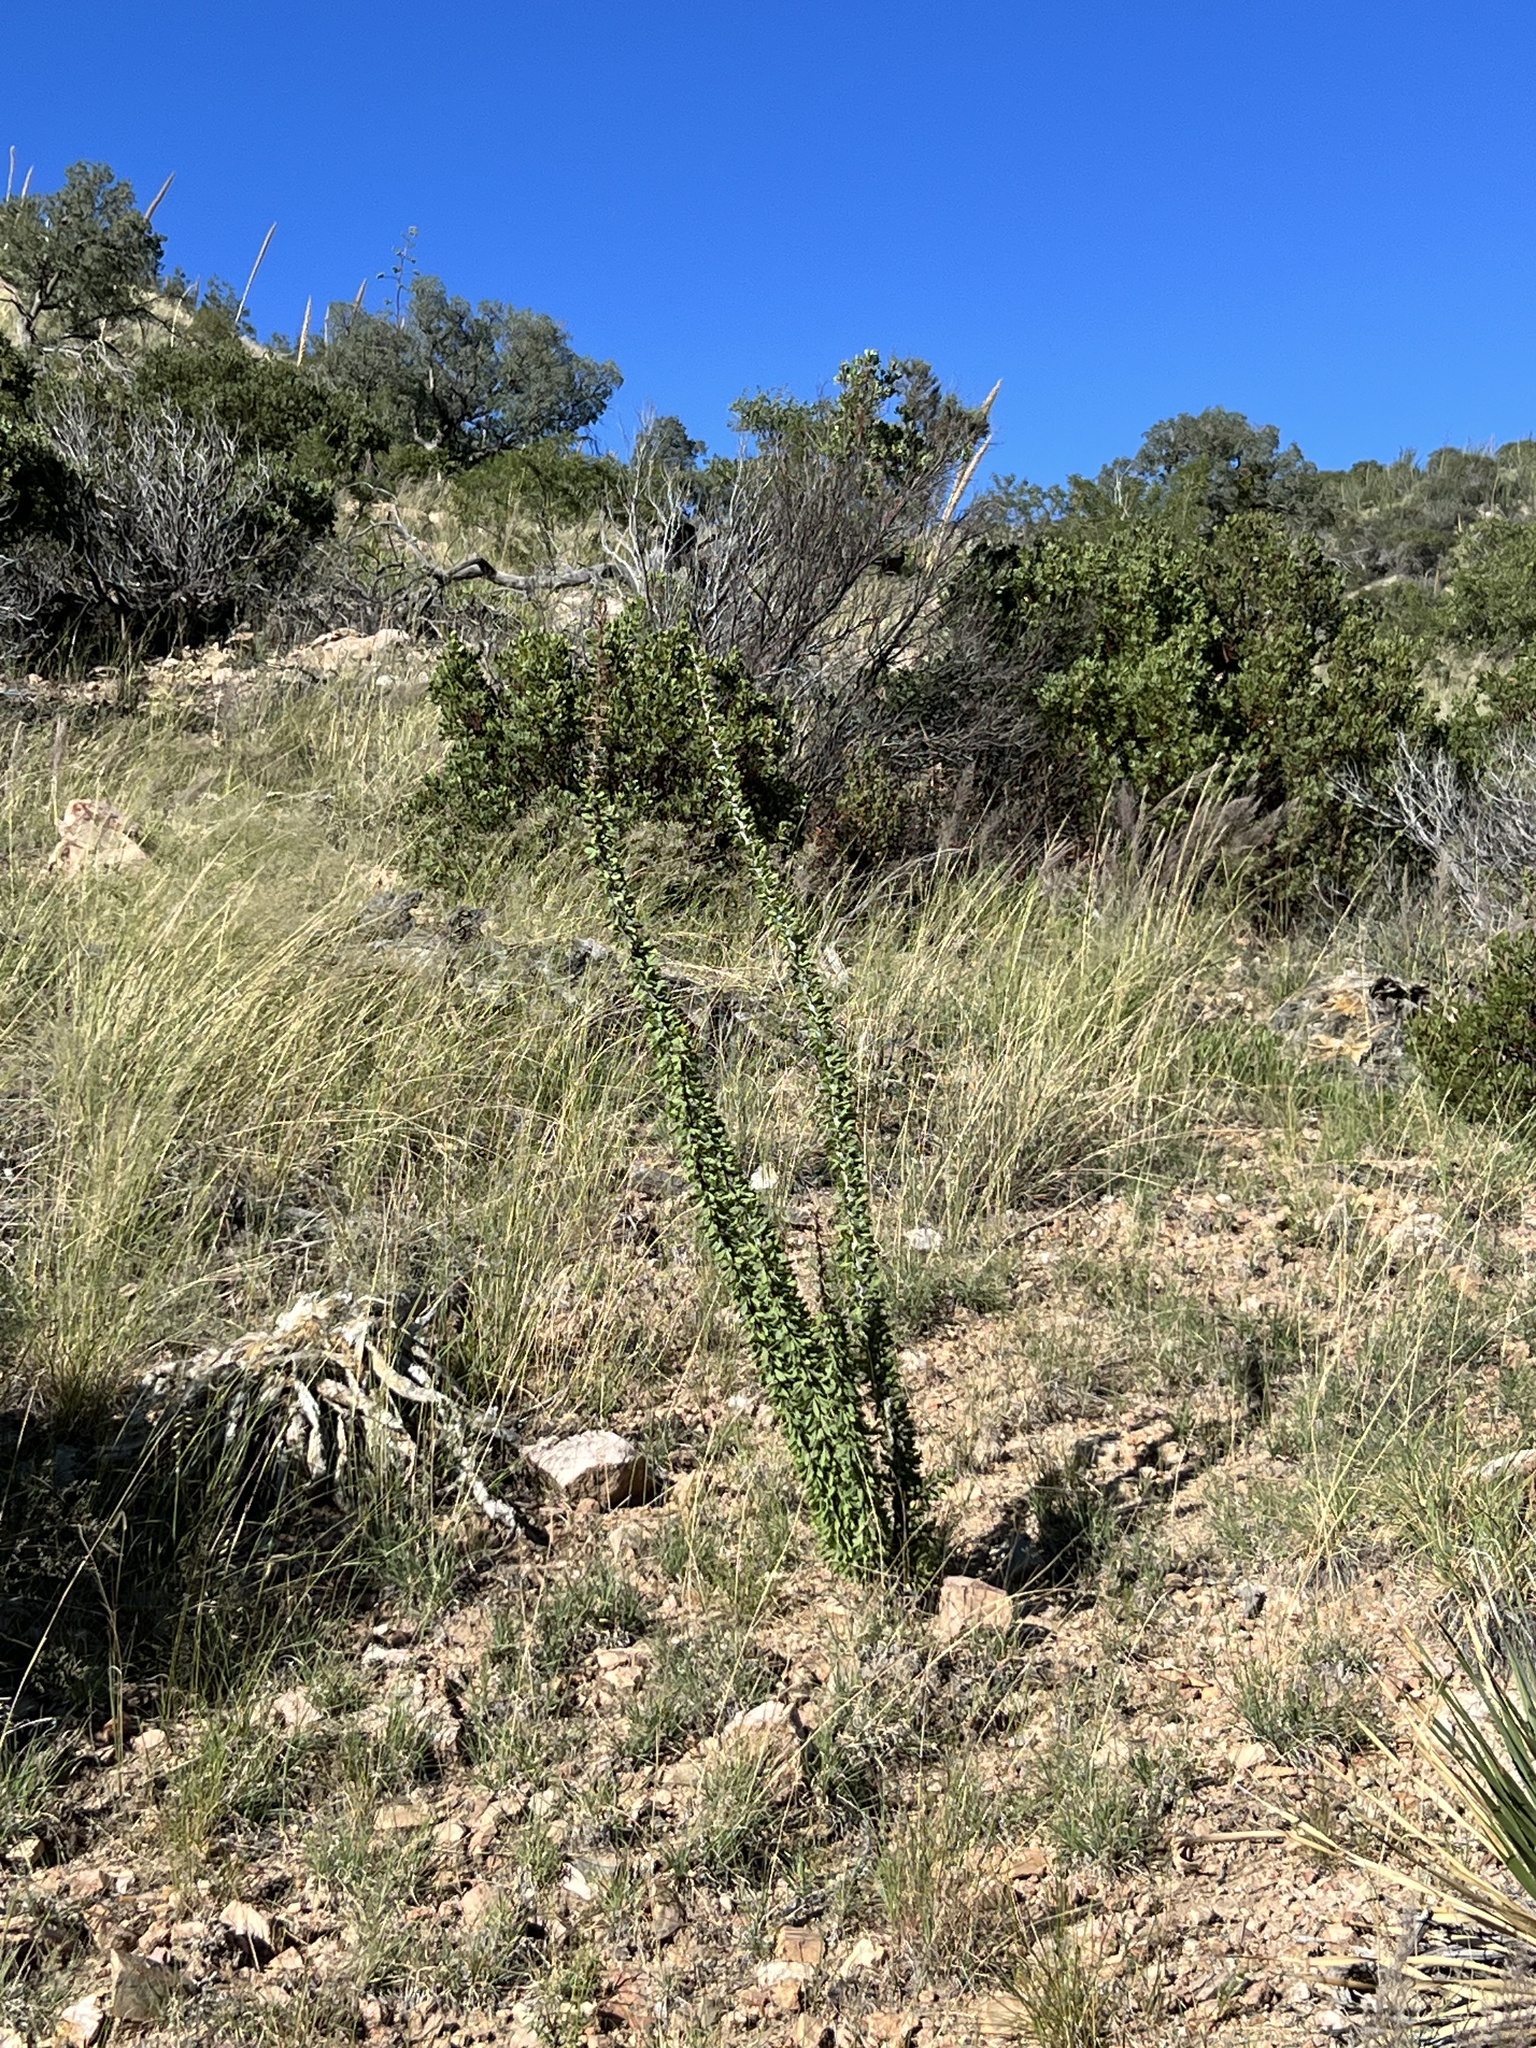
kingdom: Plantae
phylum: Tracheophyta
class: Magnoliopsida
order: Ericales
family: Fouquieriaceae
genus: Fouquieria
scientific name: Fouquieria splendens
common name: Vine-cactus
